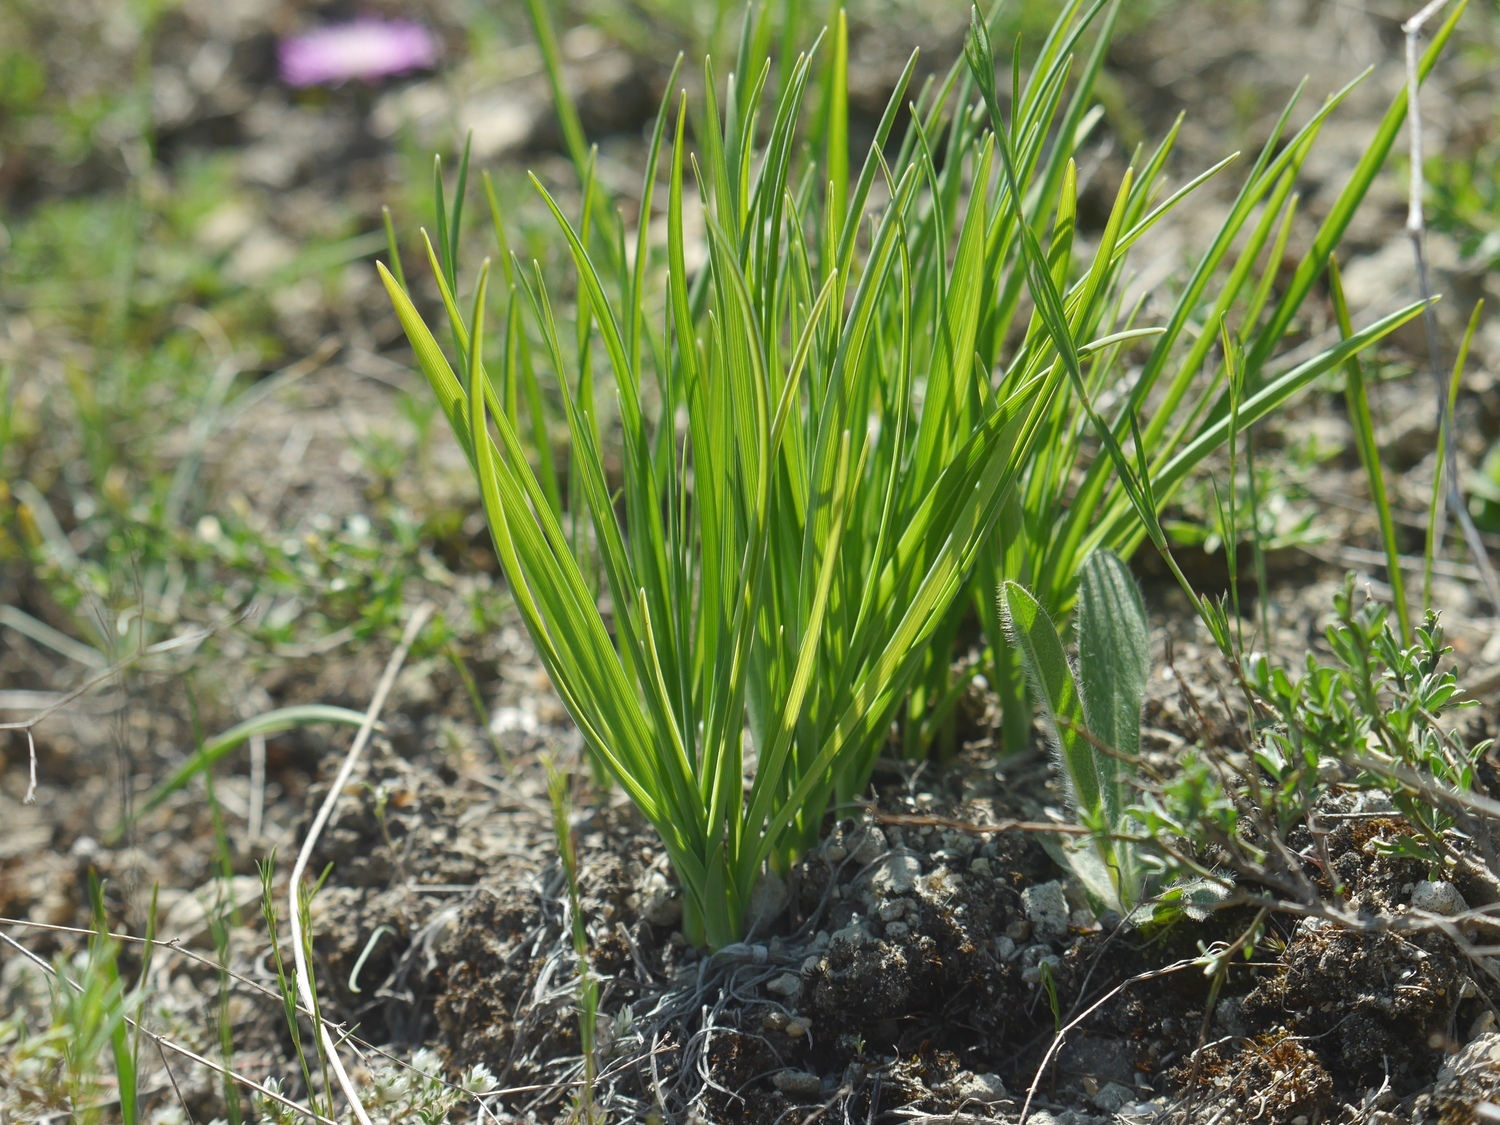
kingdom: Plantae
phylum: Tracheophyta
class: Liliopsida
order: Asparagales
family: Asparagaceae
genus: Anthericum
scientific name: Anthericum ramosum
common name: Branched st. bernard's-lily
